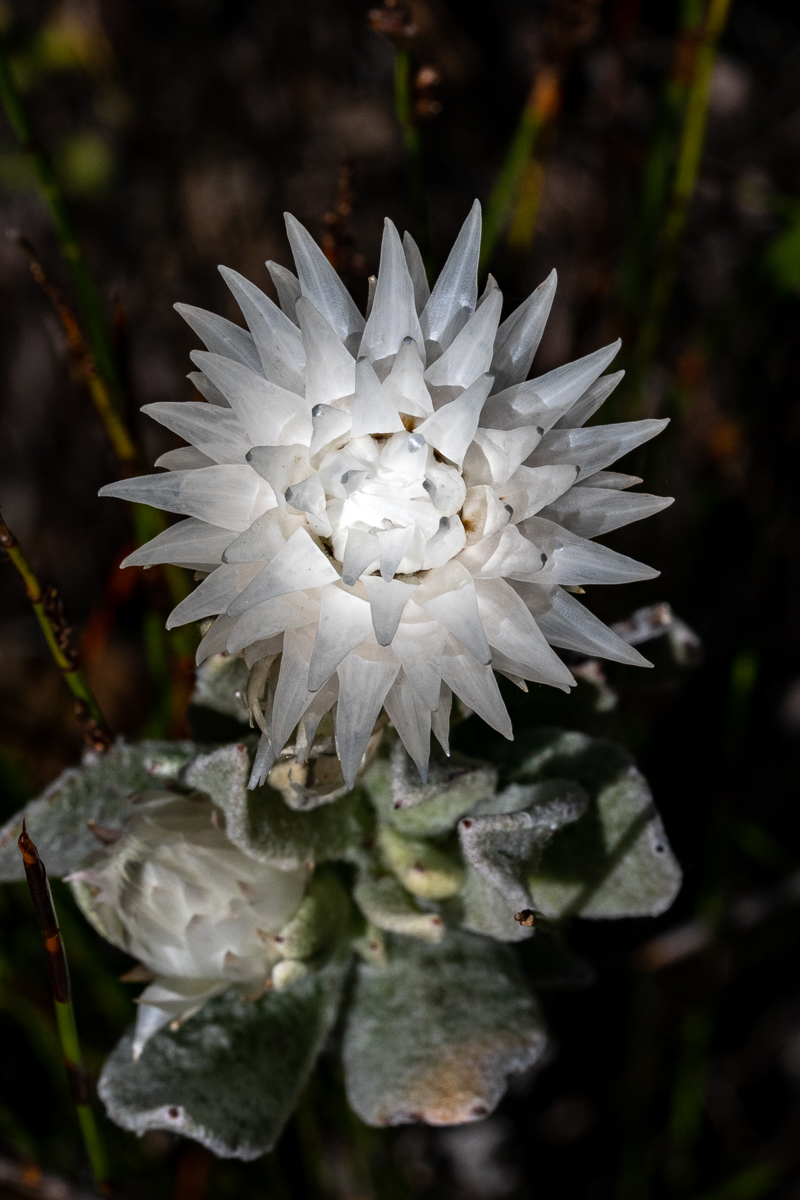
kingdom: Plantae
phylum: Tracheophyta
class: Magnoliopsida
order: Asterales
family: Asteraceae
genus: Syncarpha
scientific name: Syncarpha vestita
